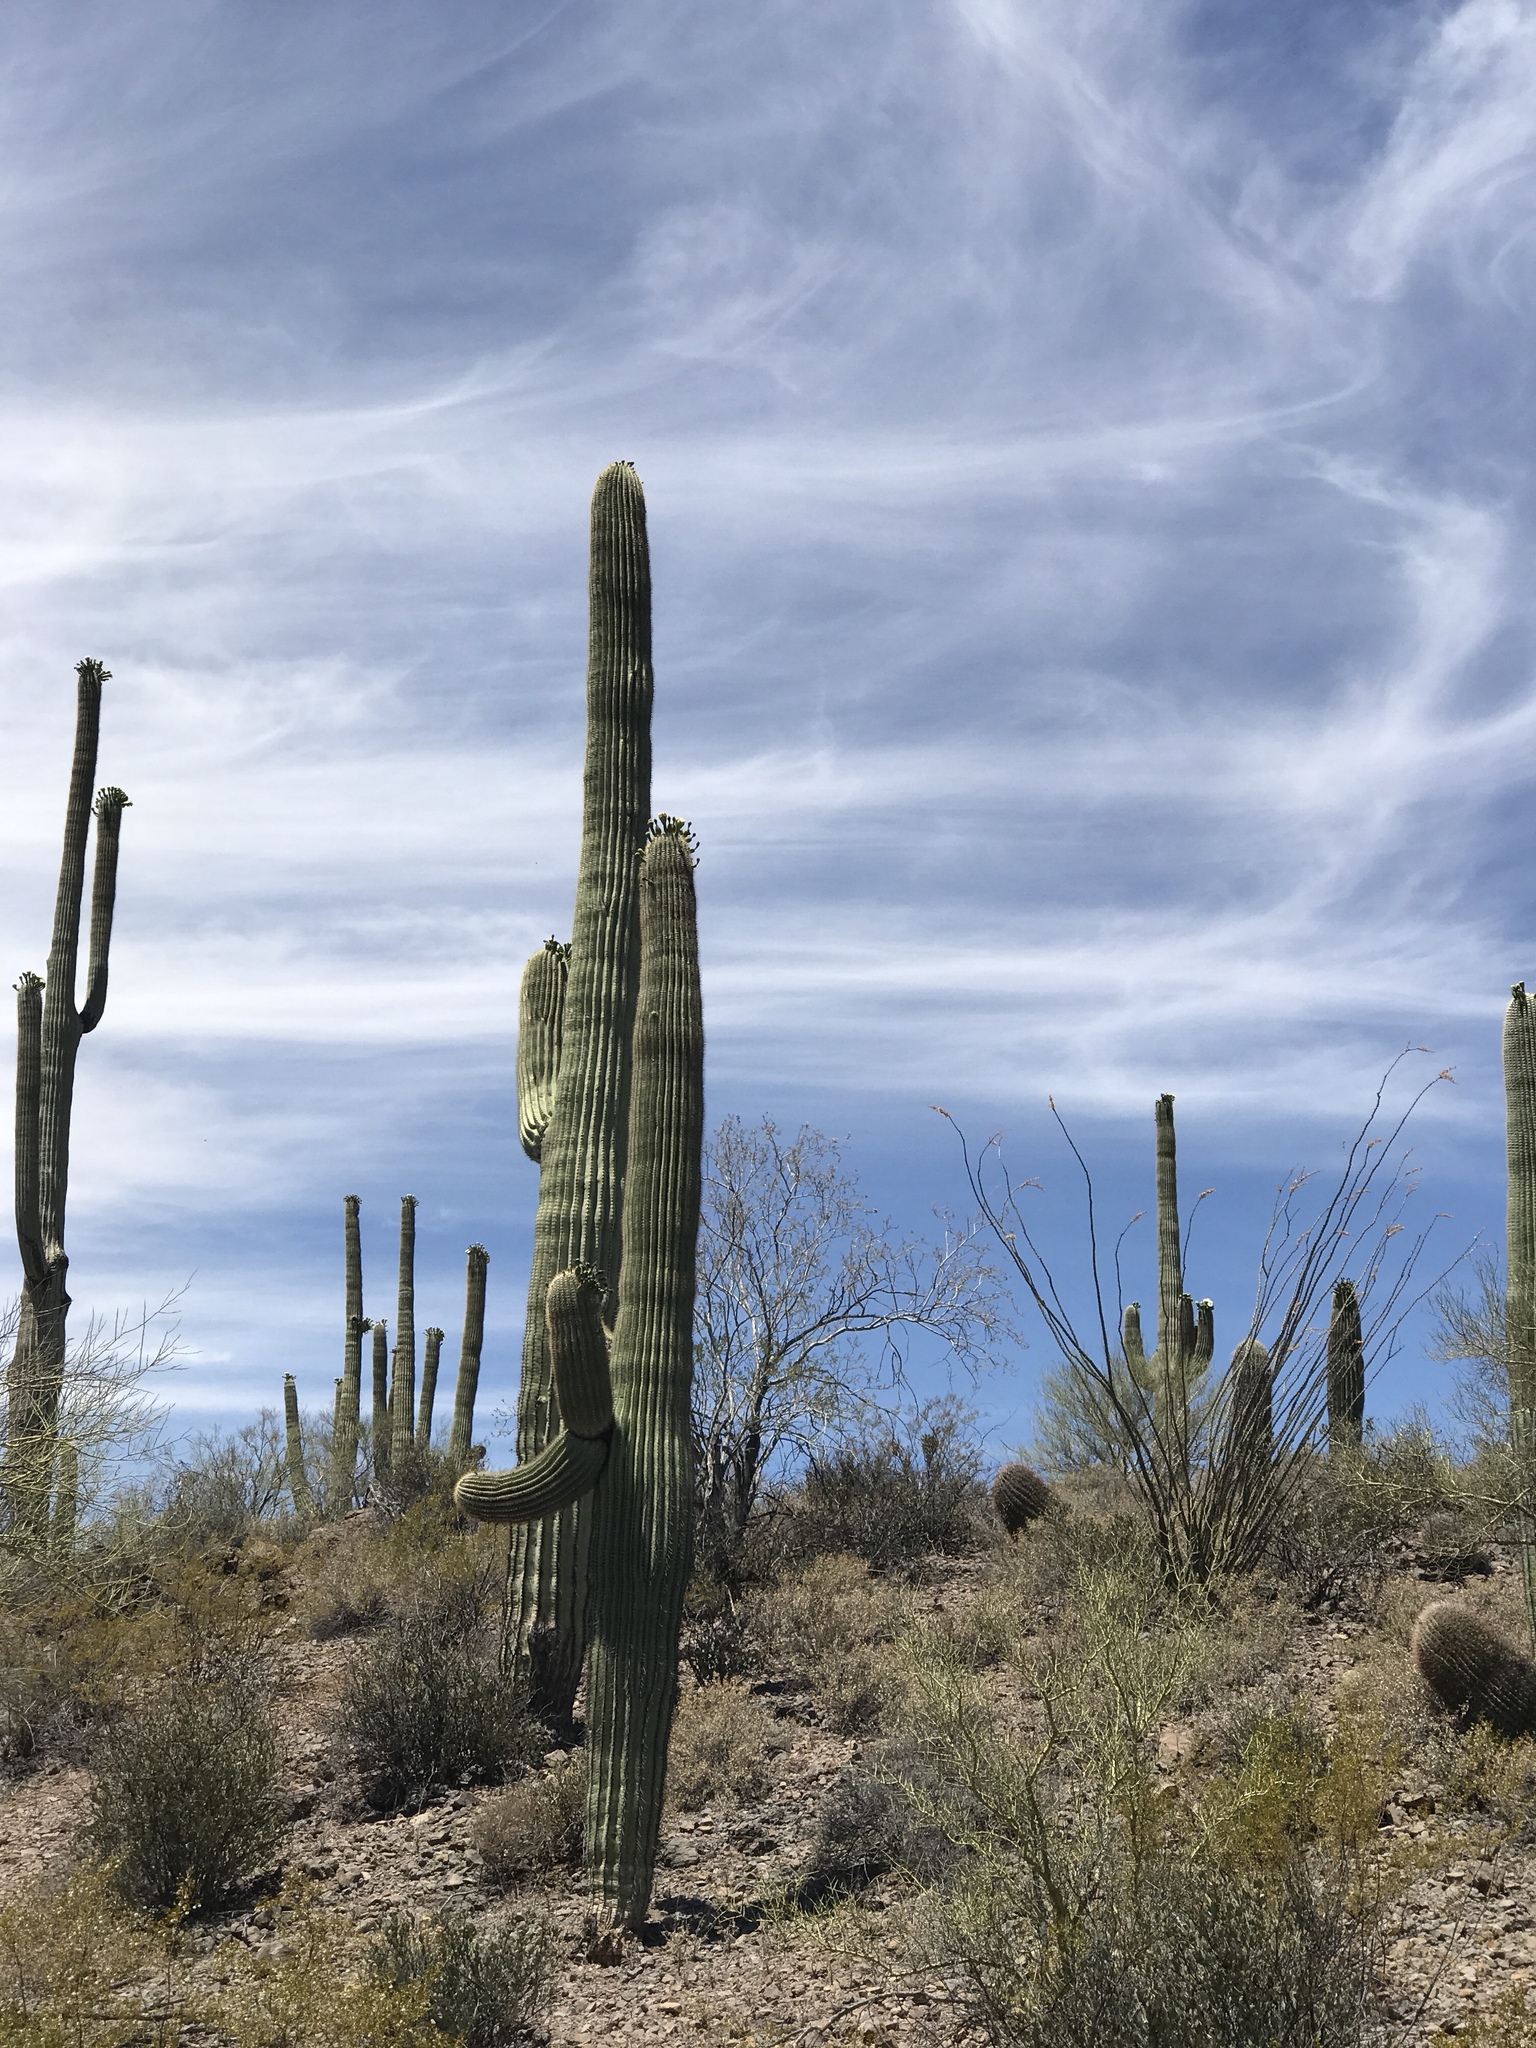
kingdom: Plantae
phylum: Tracheophyta
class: Magnoliopsida
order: Caryophyllales
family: Cactaceae
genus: Carnegiea
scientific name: Carnegiea gigantea
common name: Saguaro
